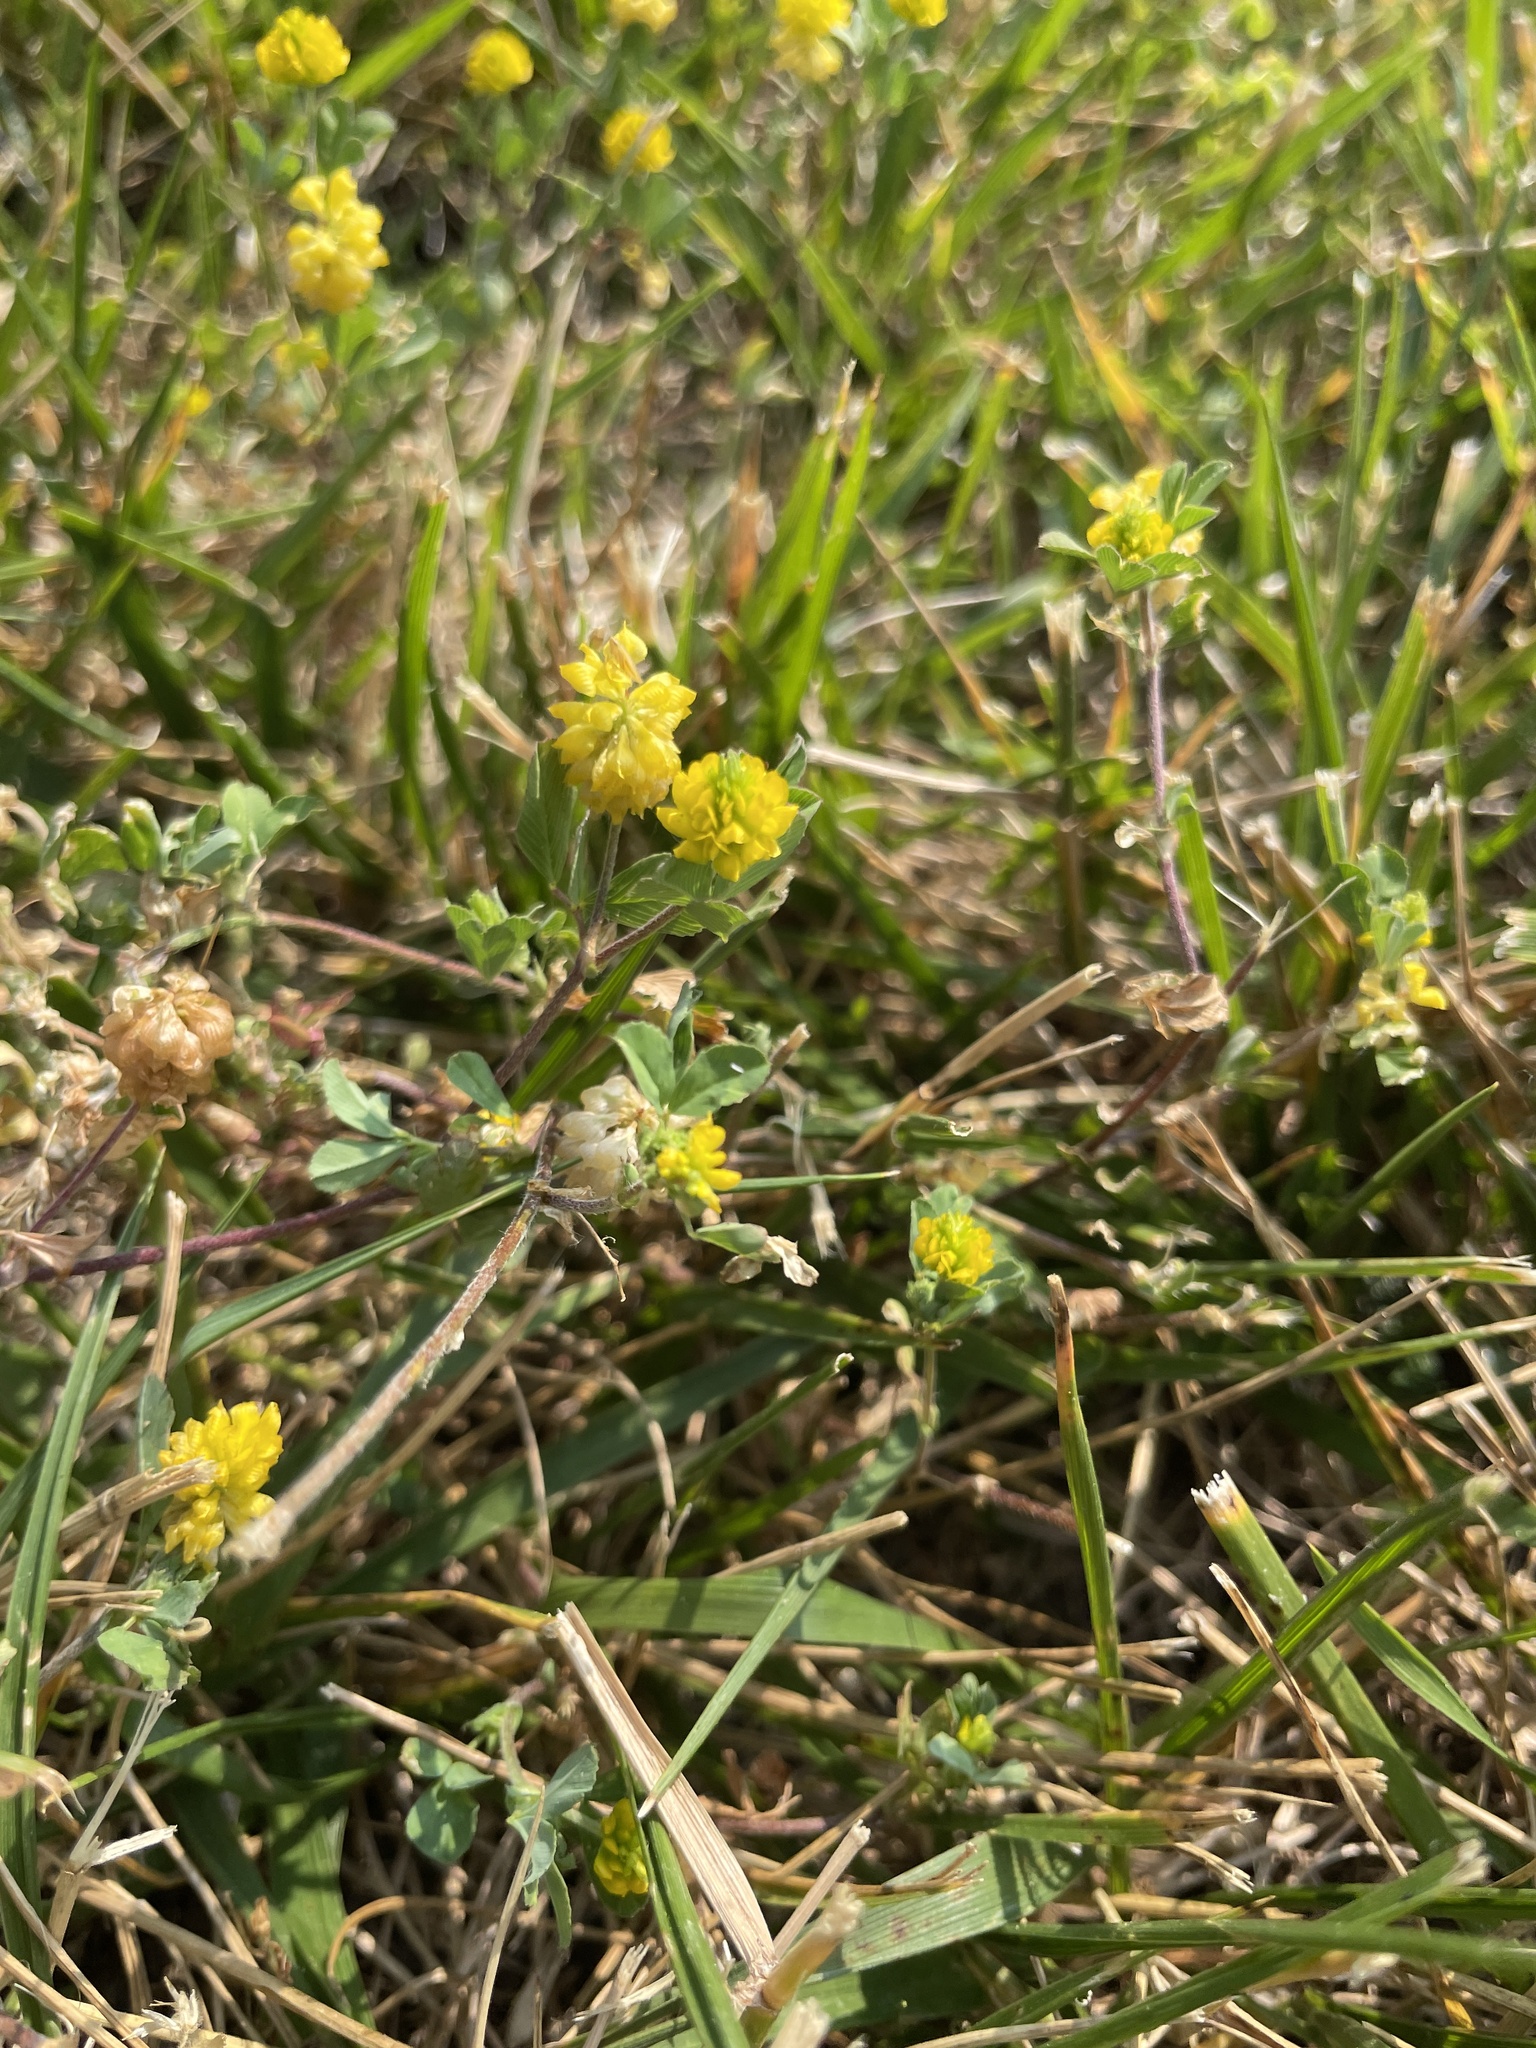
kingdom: Plantae
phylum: Tracheophyta
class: Magnoliopsida
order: Fabales
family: Fabaceae
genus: Trifolium
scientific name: Trifolium campestre
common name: Field clover
